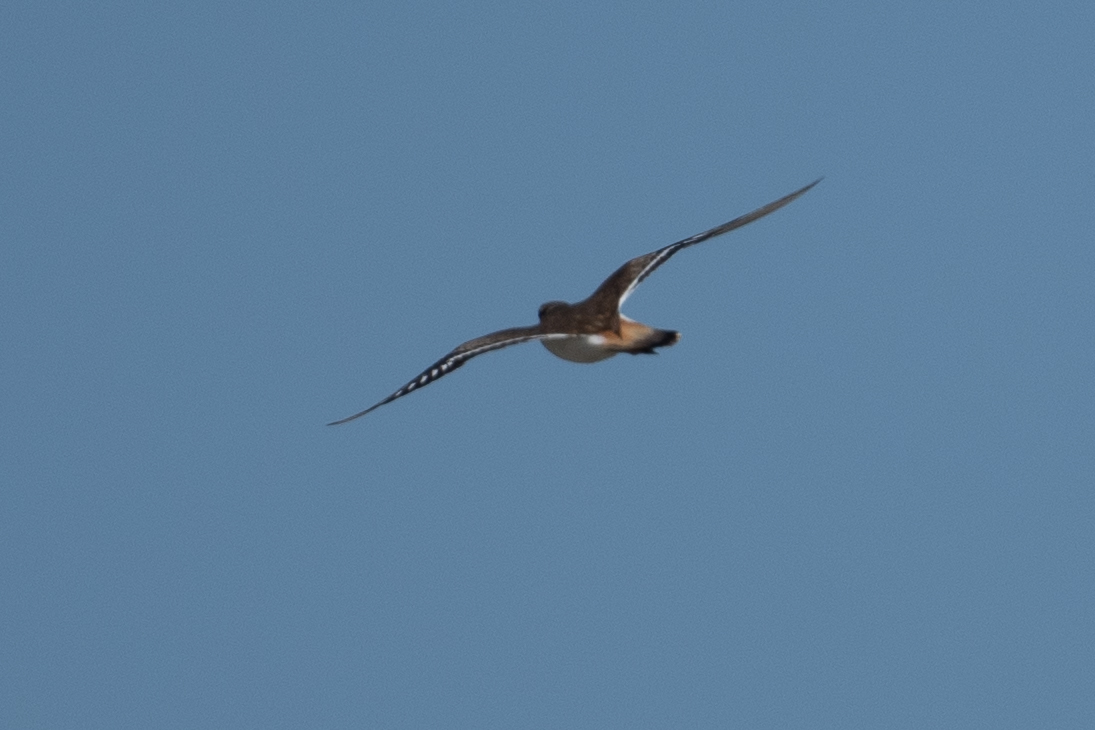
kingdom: Animalia
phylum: Chordata
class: Aves
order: Charadriiformes
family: Charadriidae
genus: Charadrius
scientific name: Charadrius vociferus
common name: Killdeer
